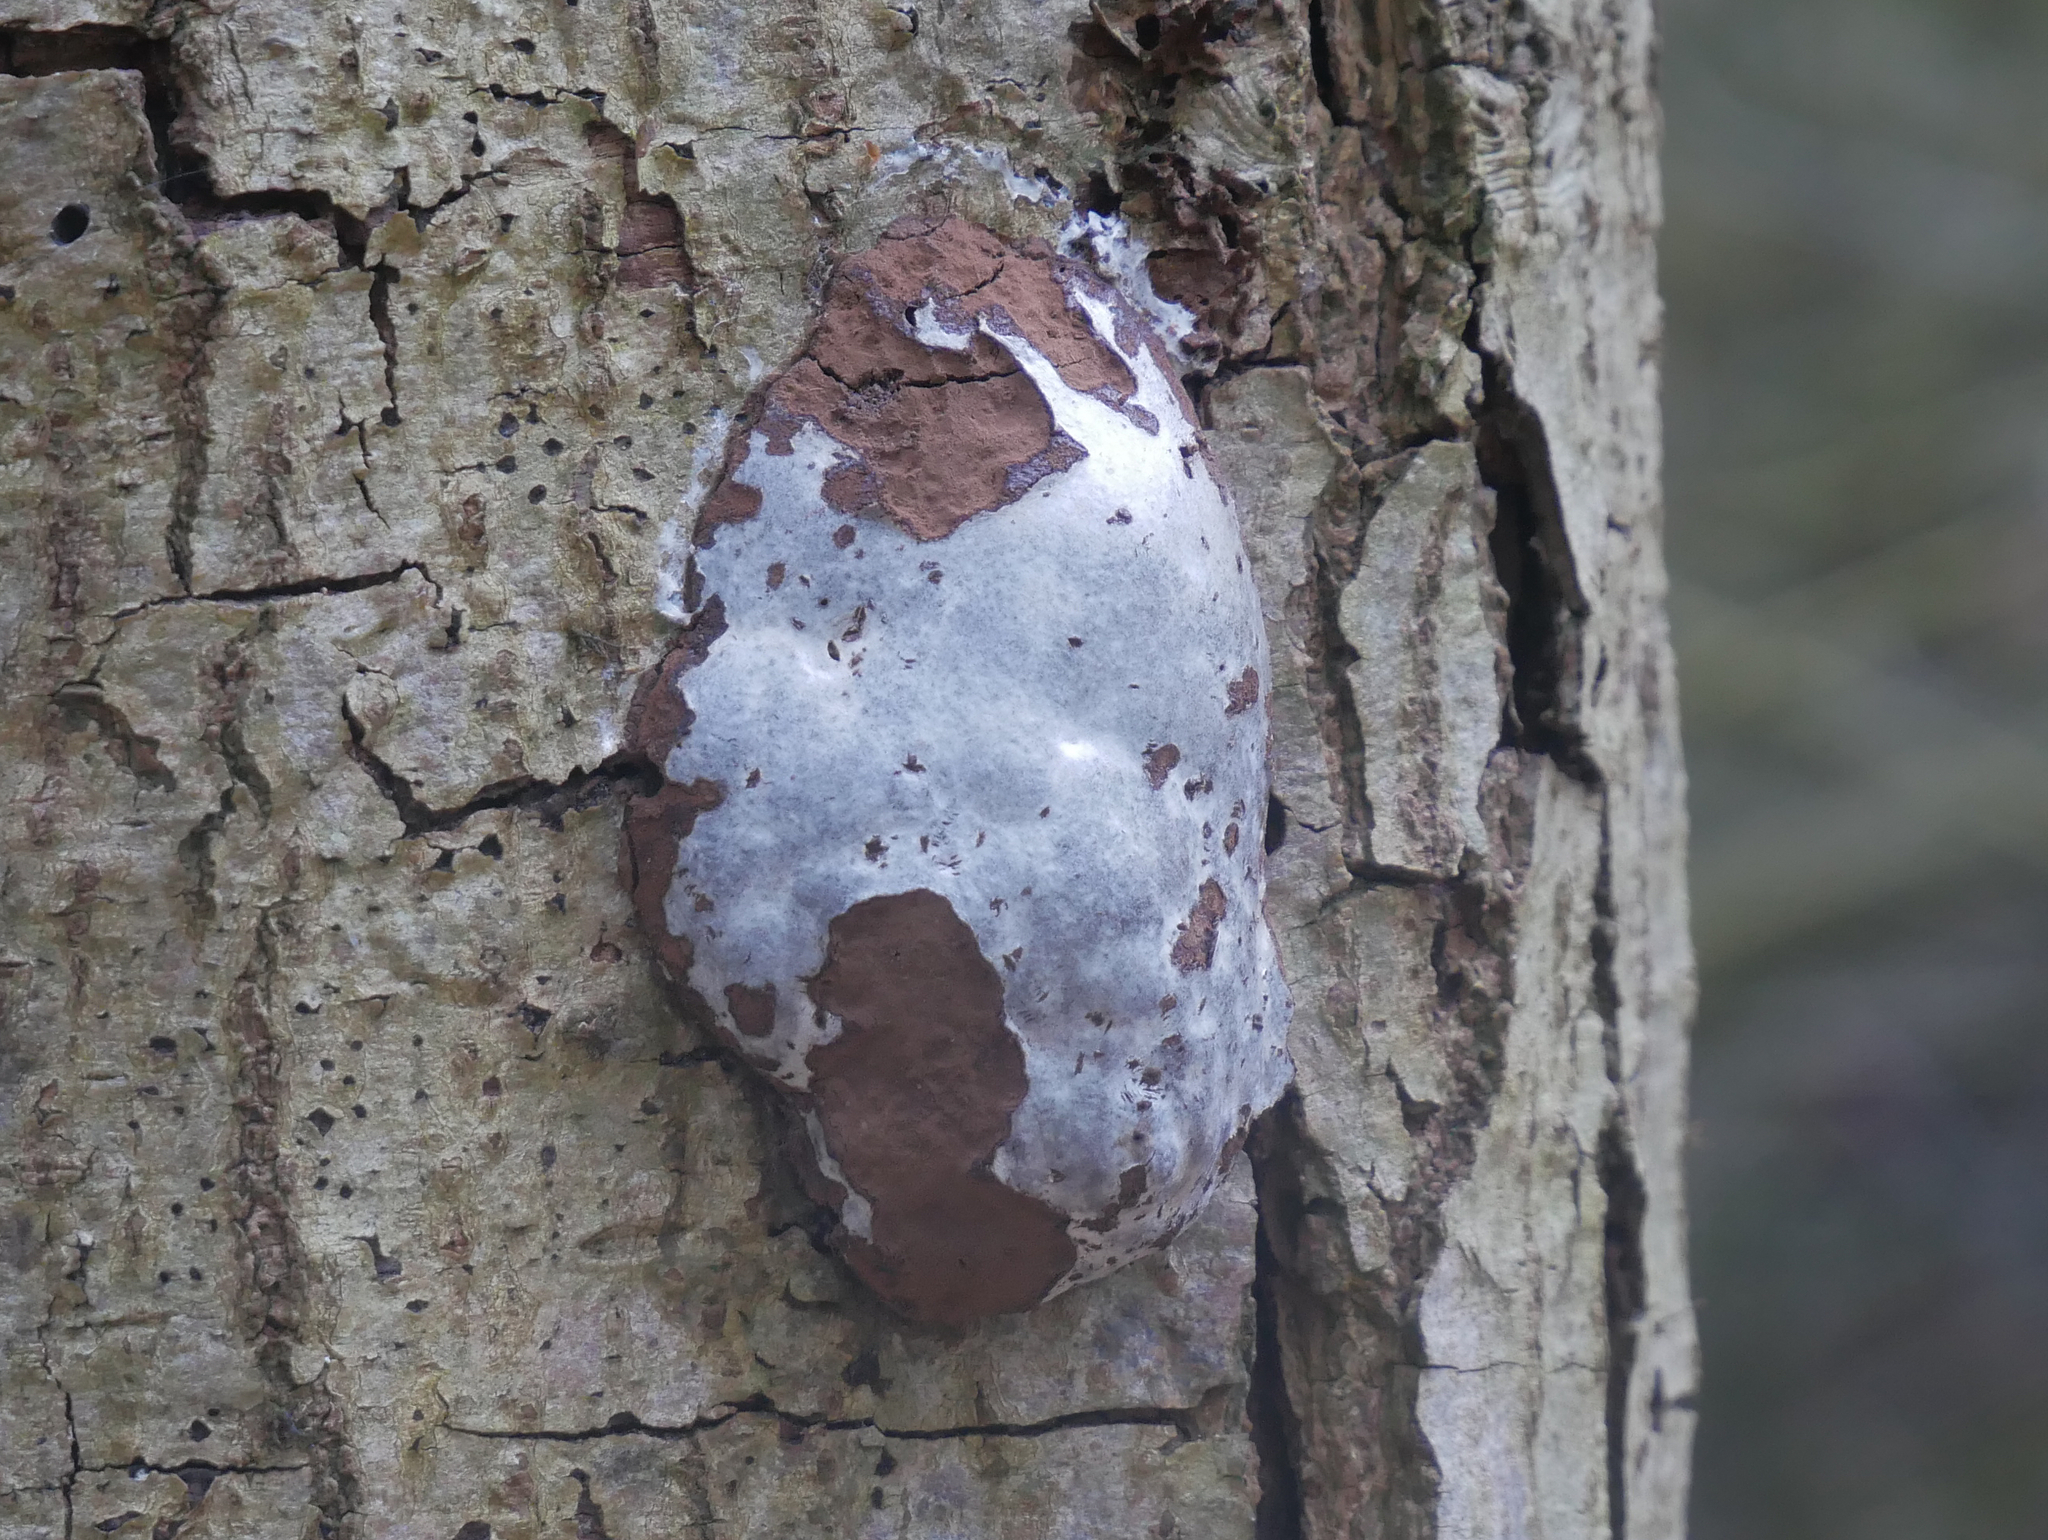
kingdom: Protozoa
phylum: Mycetozoa
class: Myxomycetes
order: Cribrariales
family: Tubiferaceae
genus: Reticularia
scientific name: Reticularia lycoperdon
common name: False puffball
